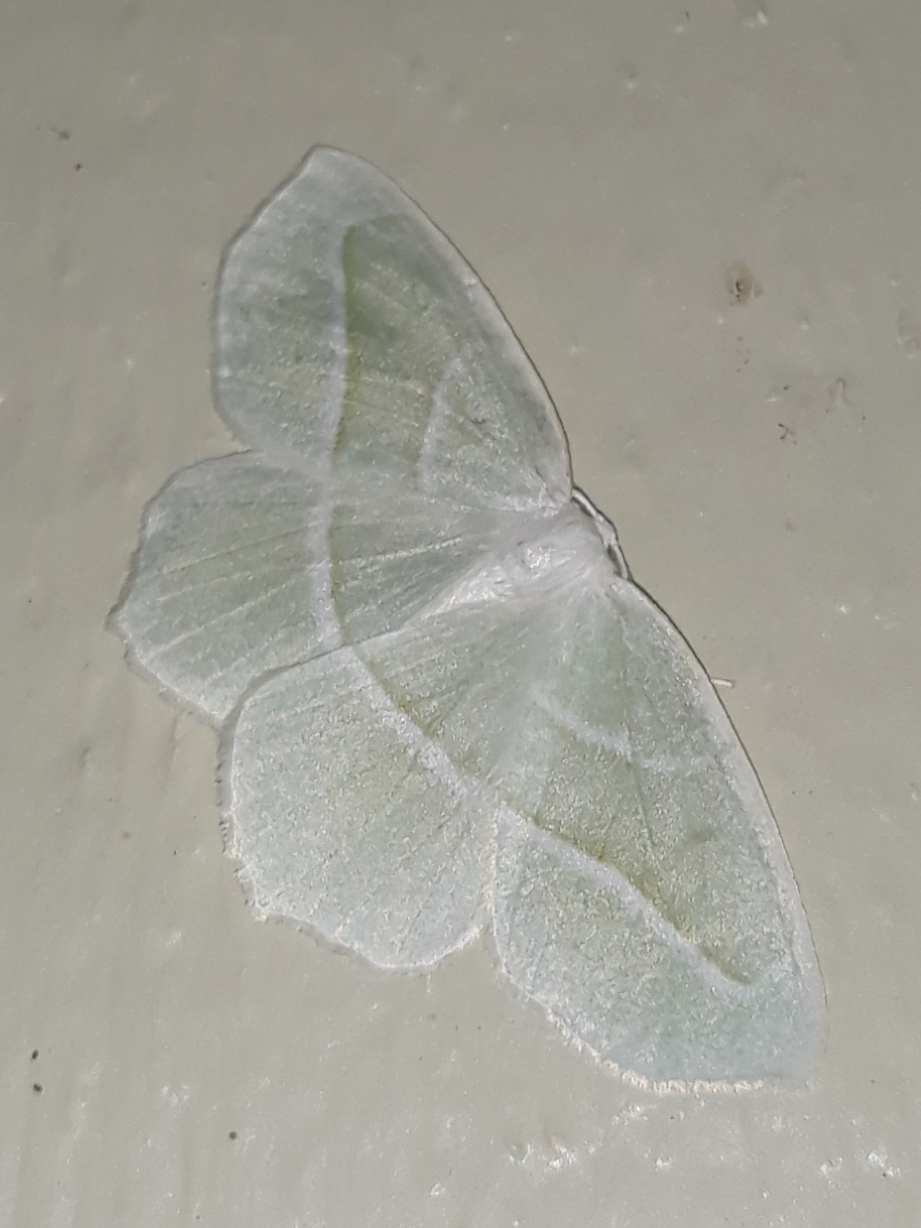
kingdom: Animalia
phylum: Arthropoda
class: Insecta
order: Lepidoptera
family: Geometridae
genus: Campaea
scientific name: Campaea perlata
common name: Fringed looper
